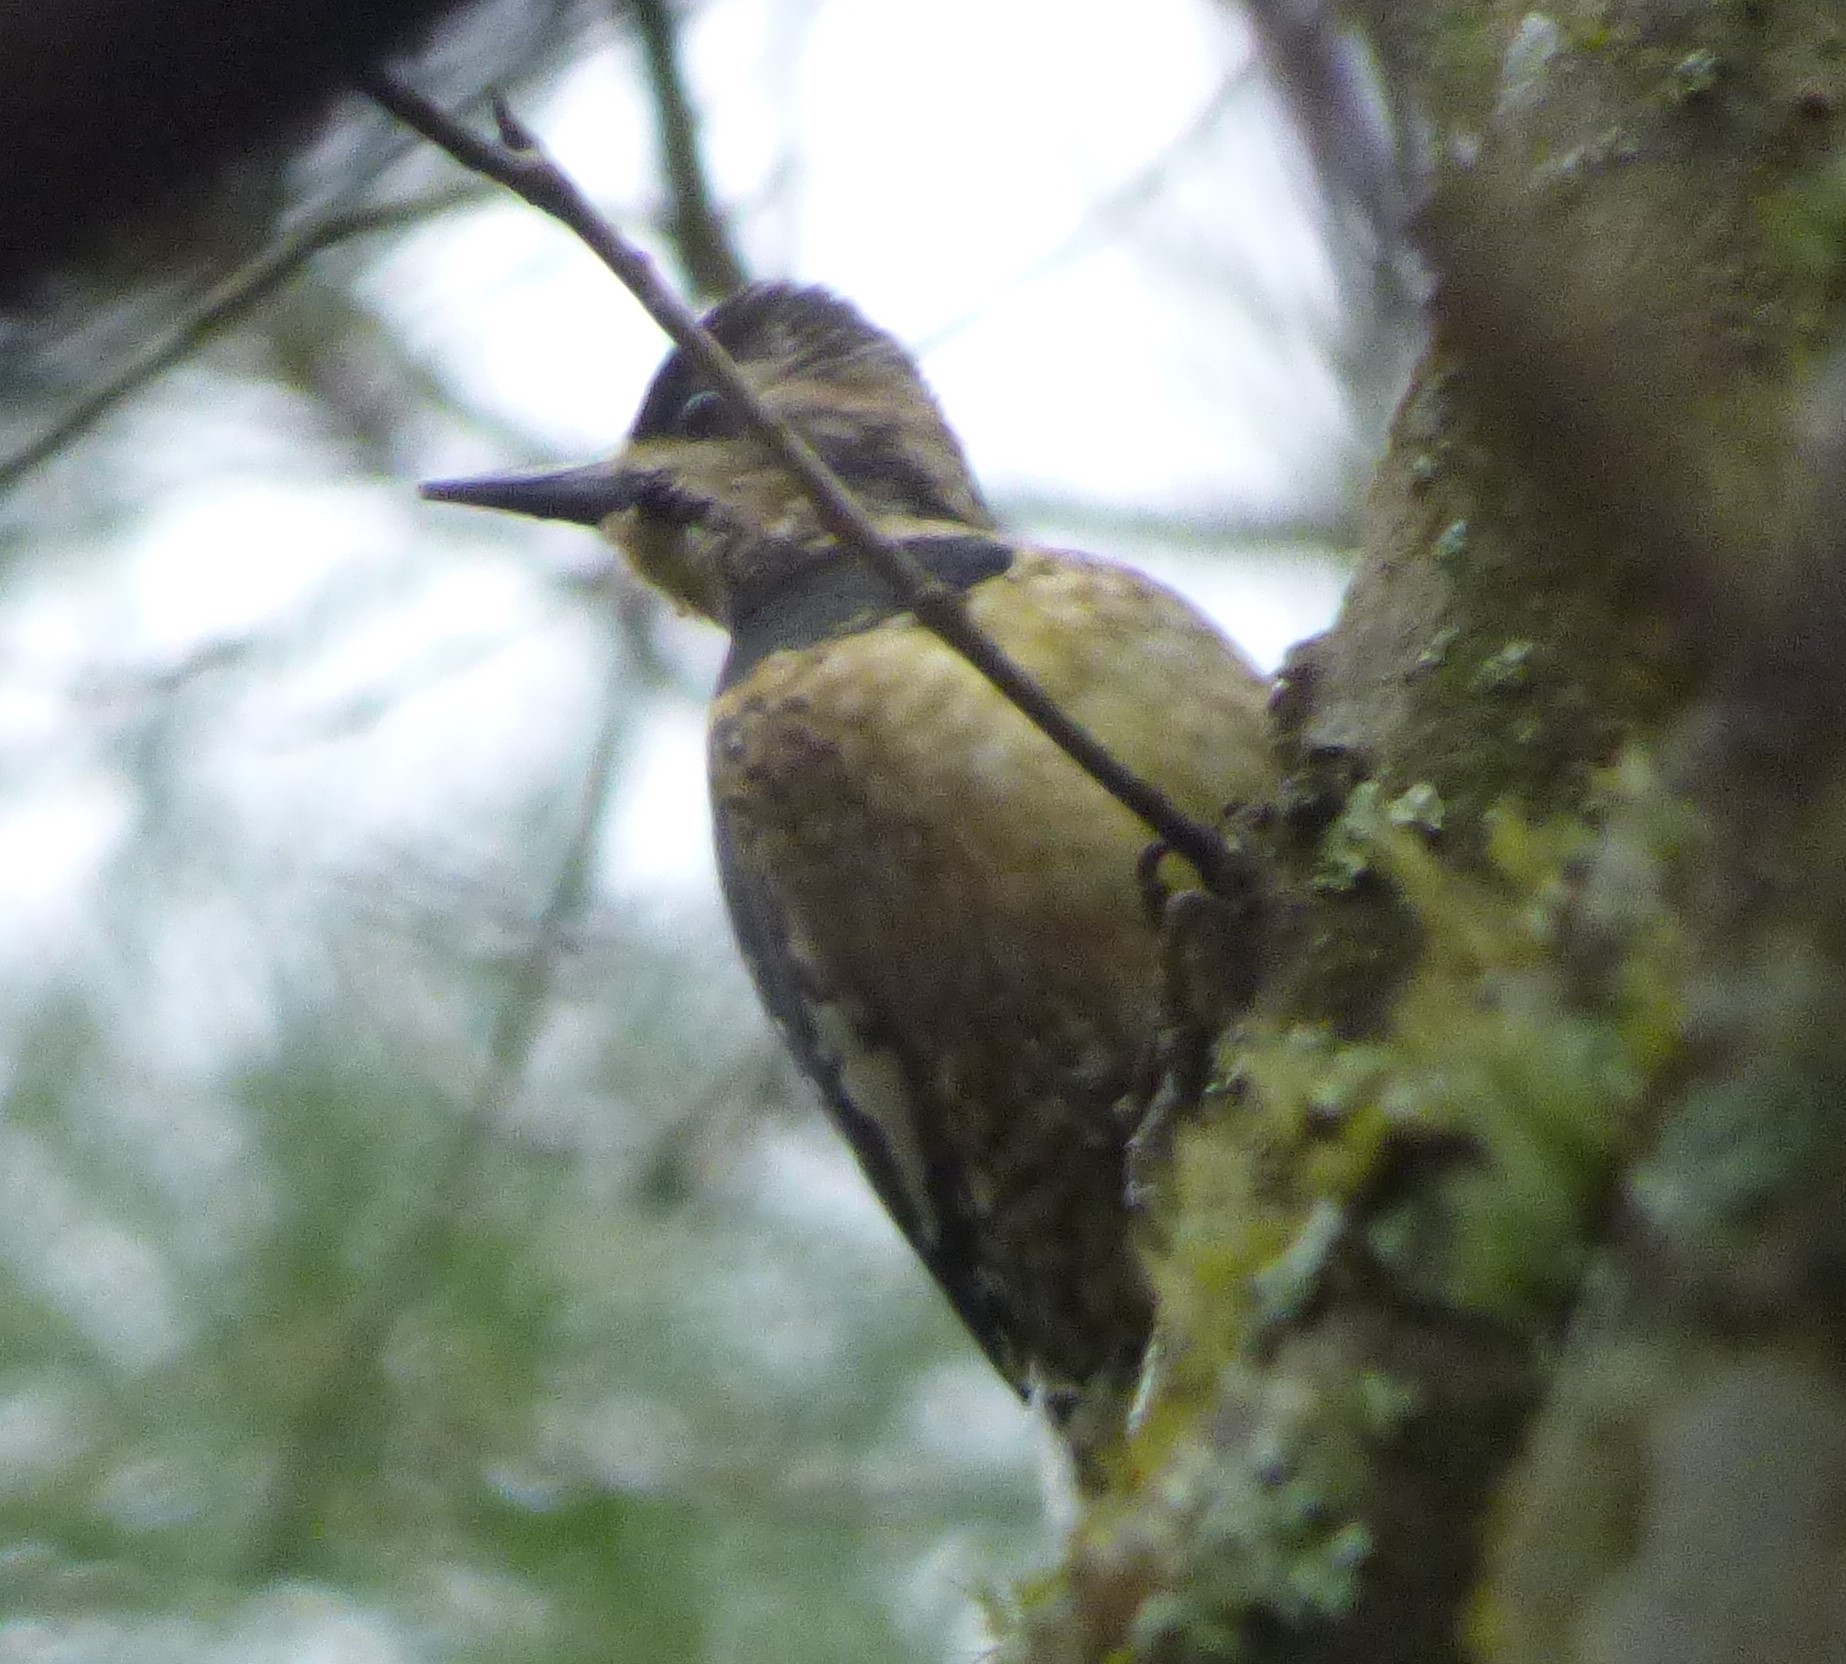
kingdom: Animalia
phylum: Chordata
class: Aves
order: Piciformes
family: Picidae
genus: Sphyrapicus
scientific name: Sphyrapicus varius
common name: Yellow-bellied sapsucker
